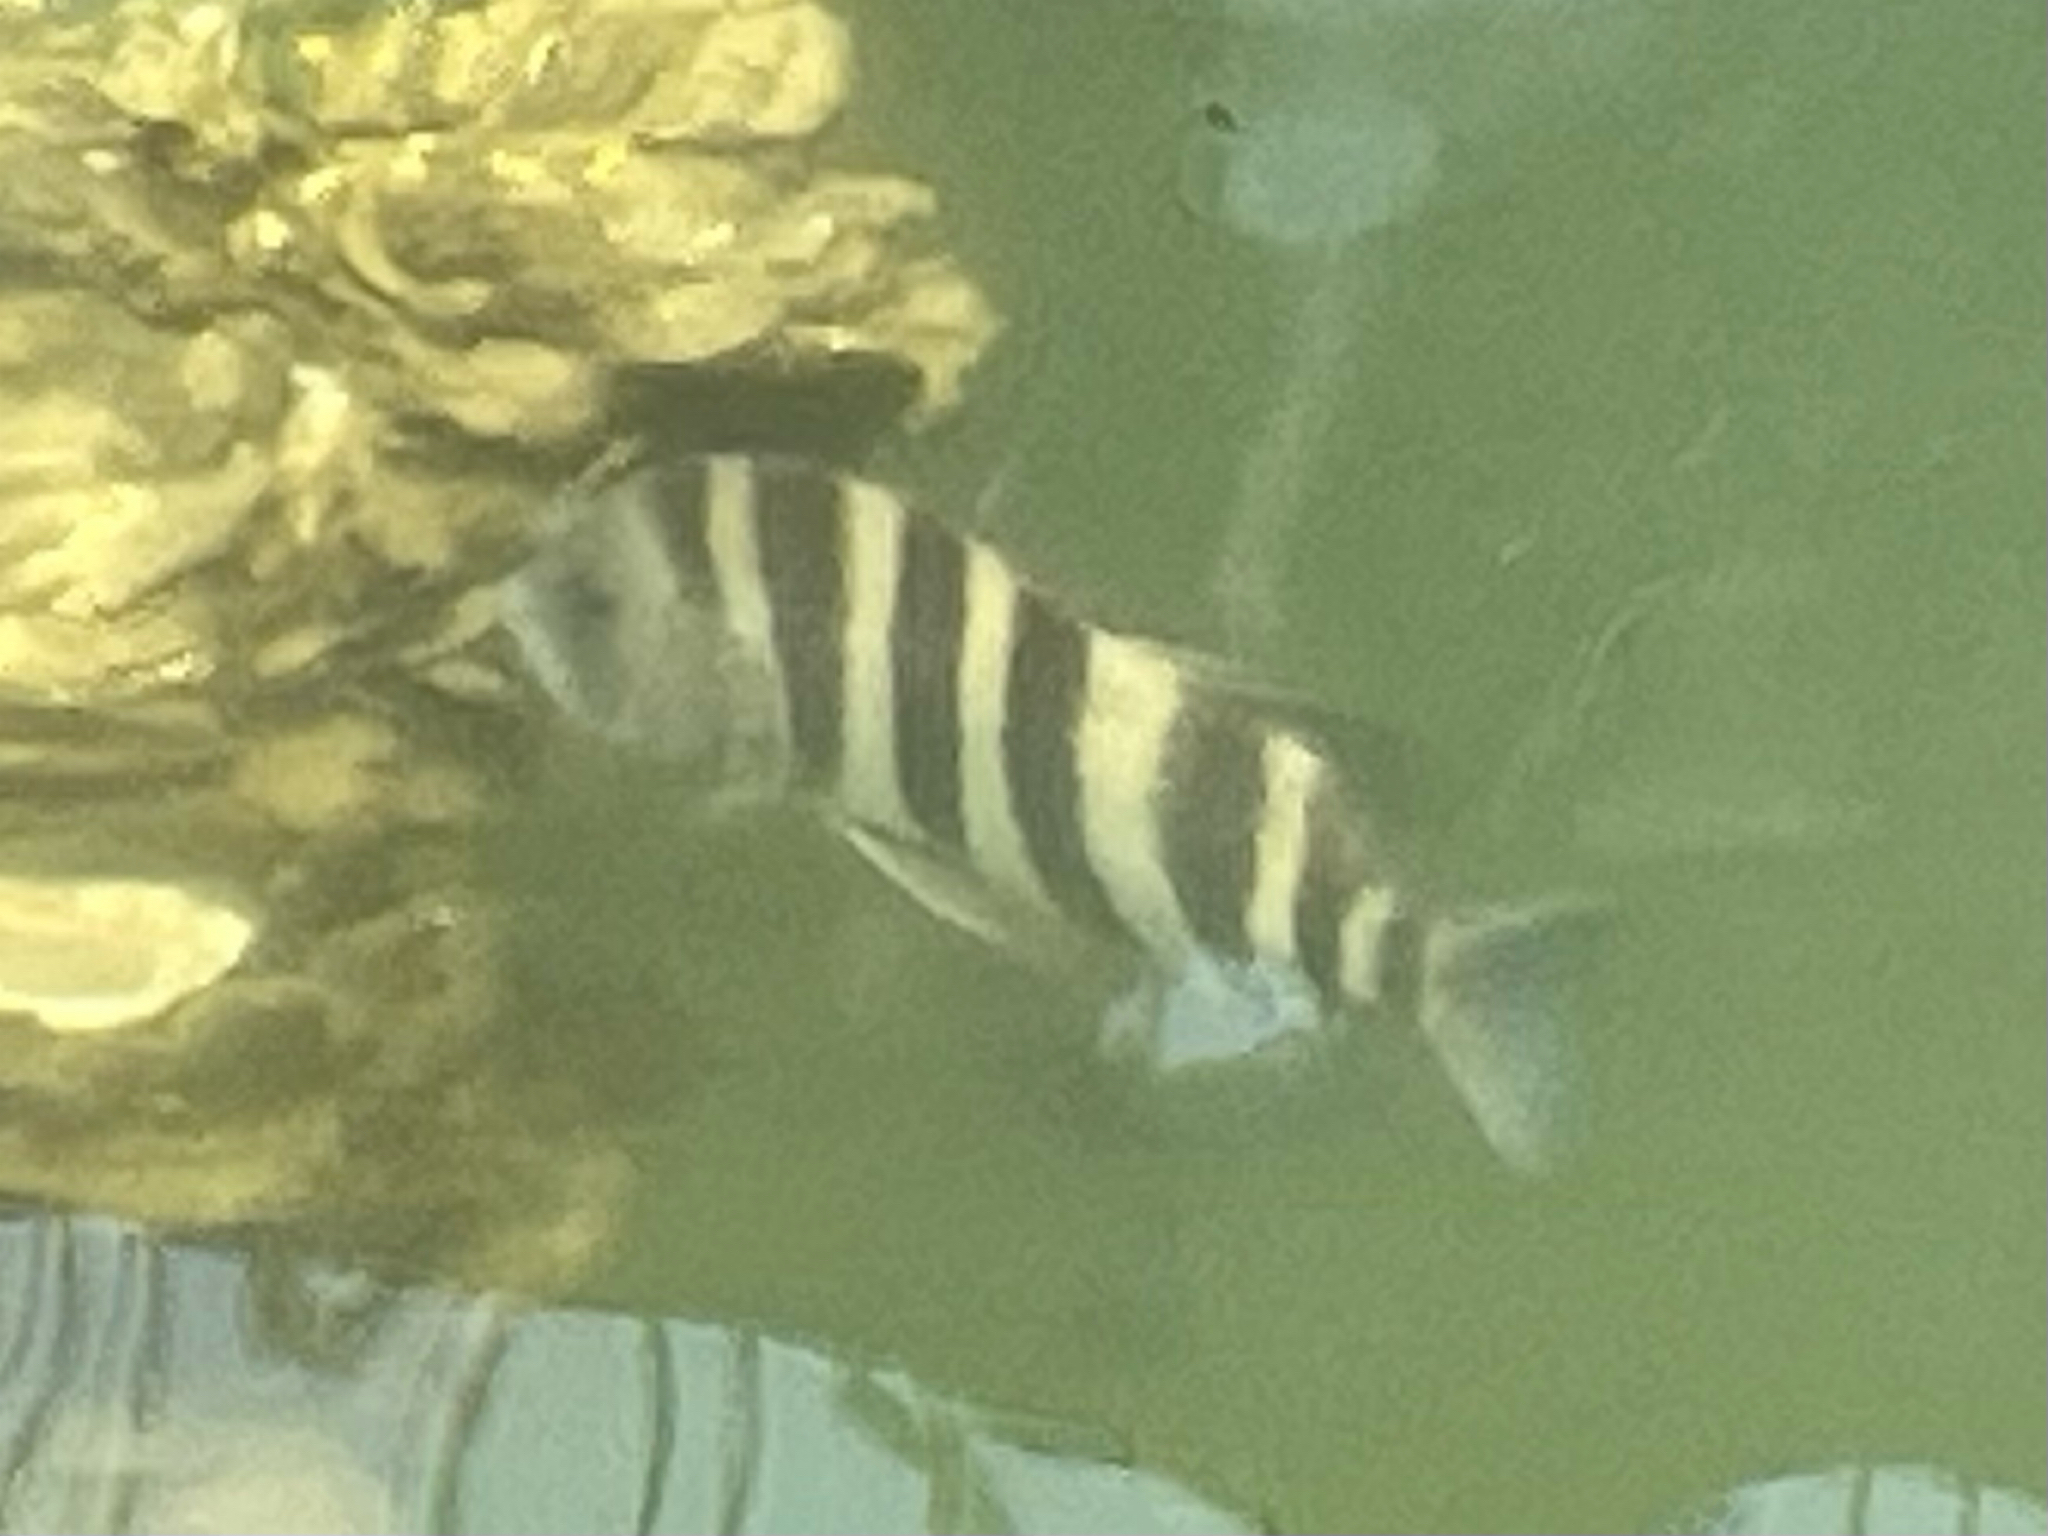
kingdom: Animalia
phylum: Chordata
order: Perciformes
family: Sparidae
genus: Archosargus
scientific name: Archosargus probatocephalus
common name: Sheepshead
